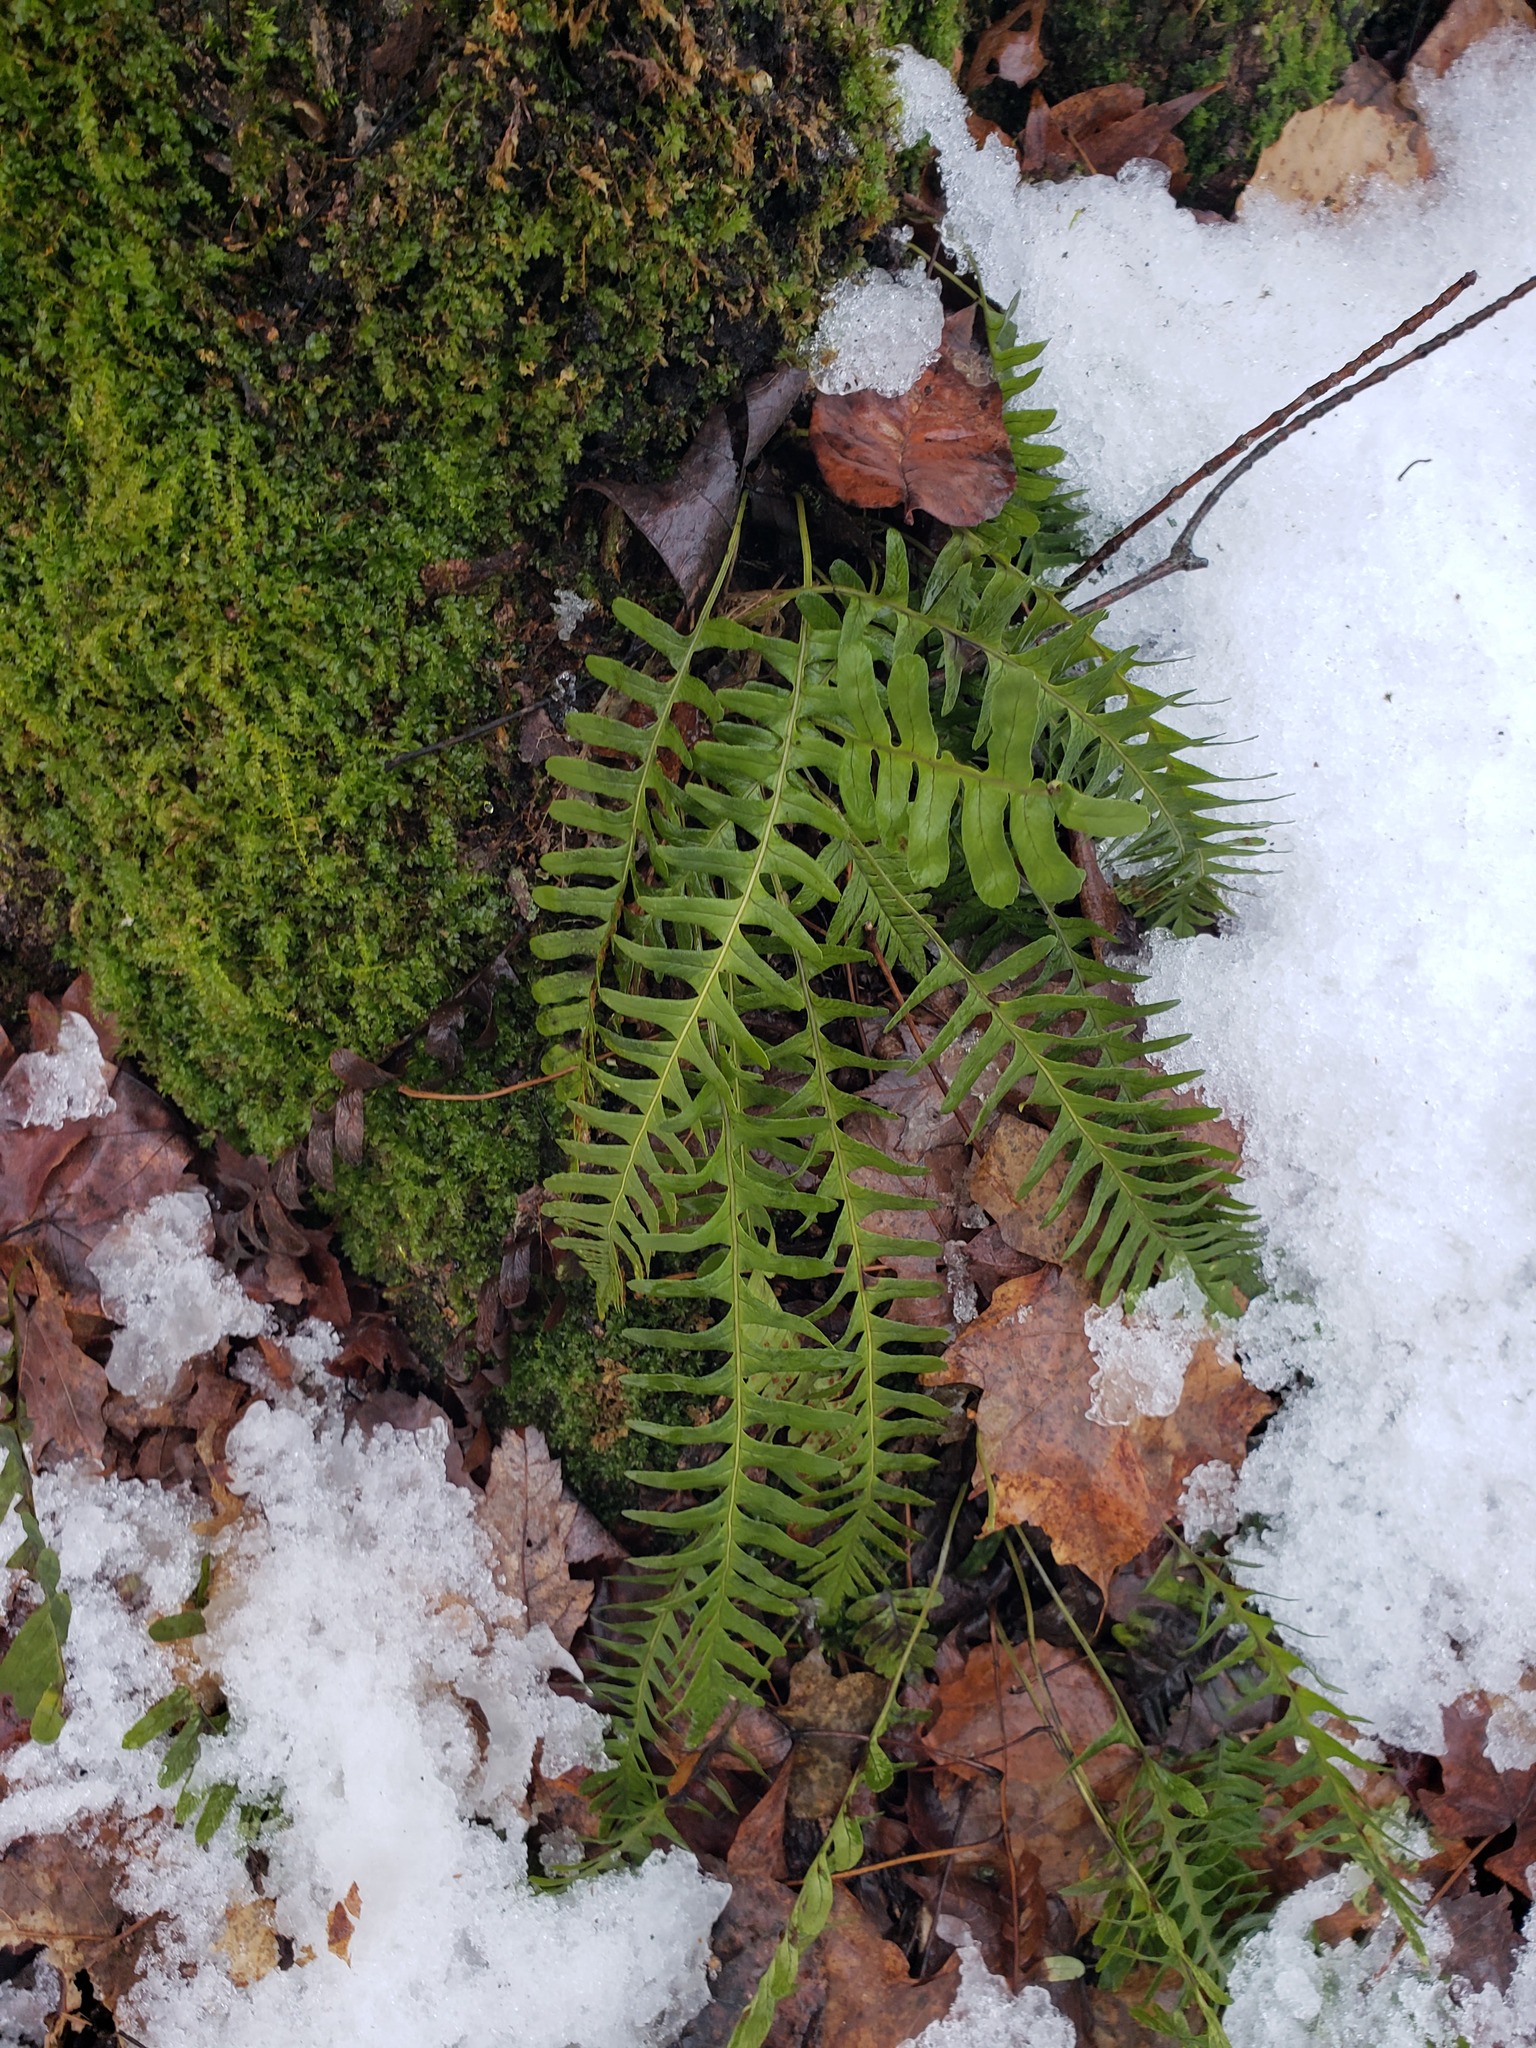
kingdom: Plantae
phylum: Tracheophyta
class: Polypodiopsida
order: Polypodiales
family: Polypodiaceae
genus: Polypodium
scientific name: Polypodium virginianum
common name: American wall fern
